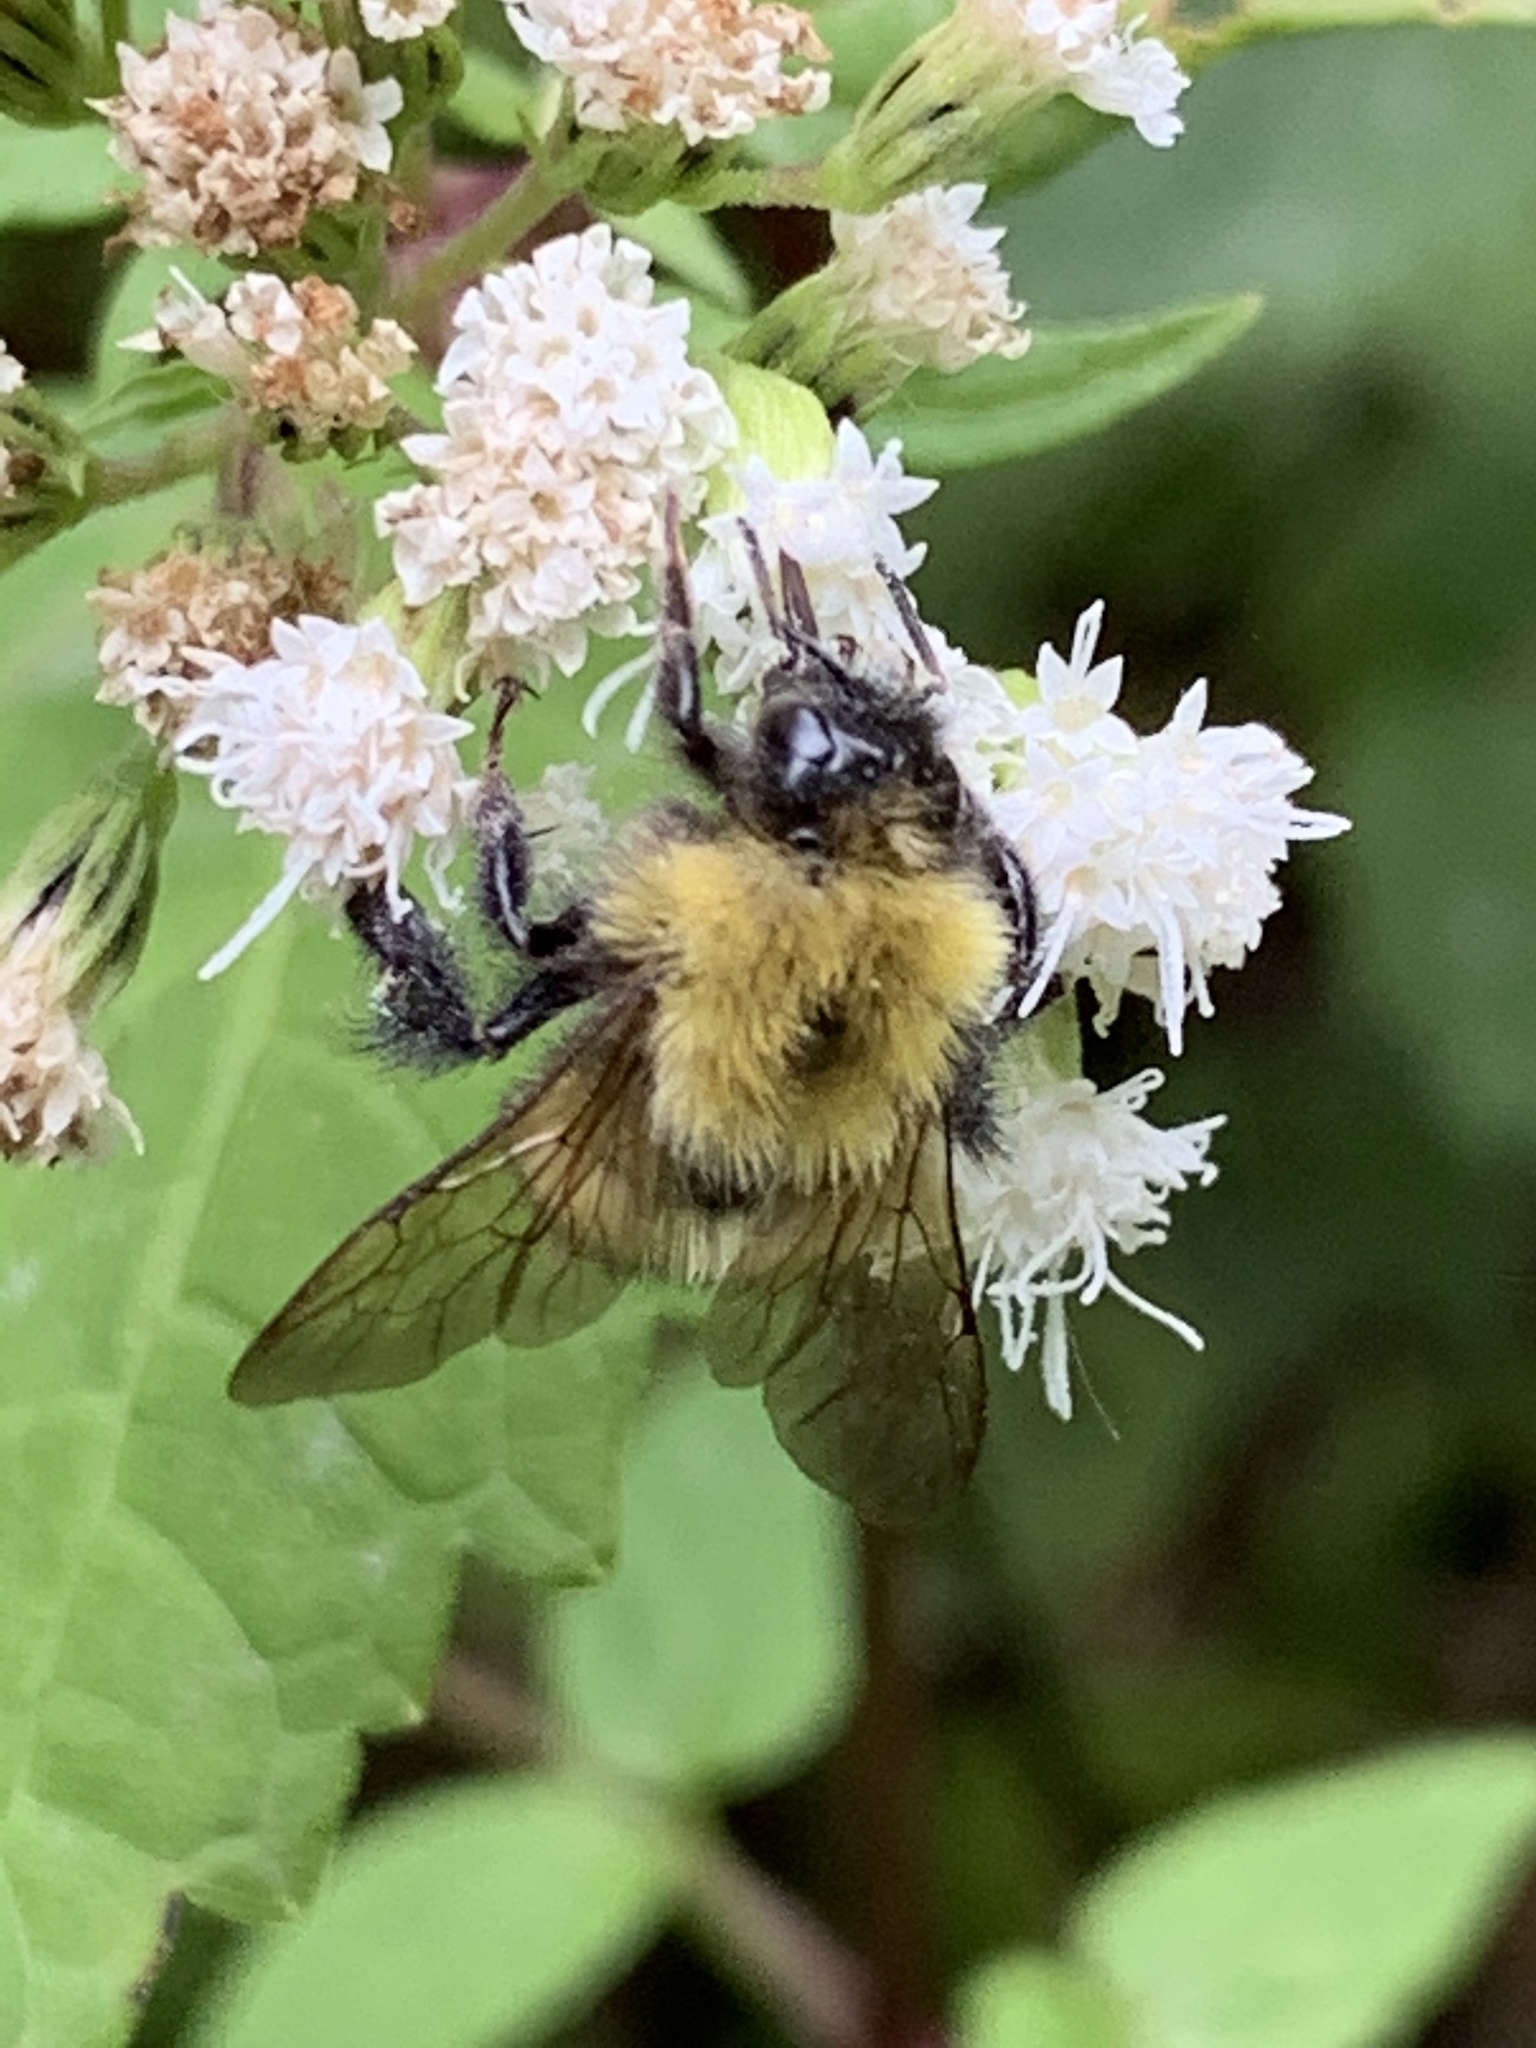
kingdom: Animalia
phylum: Arthropoda
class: Insecta
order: Hymenoptera
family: Apidae
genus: Bombus
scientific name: Bombus perplexus
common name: Confusing bumble bee
